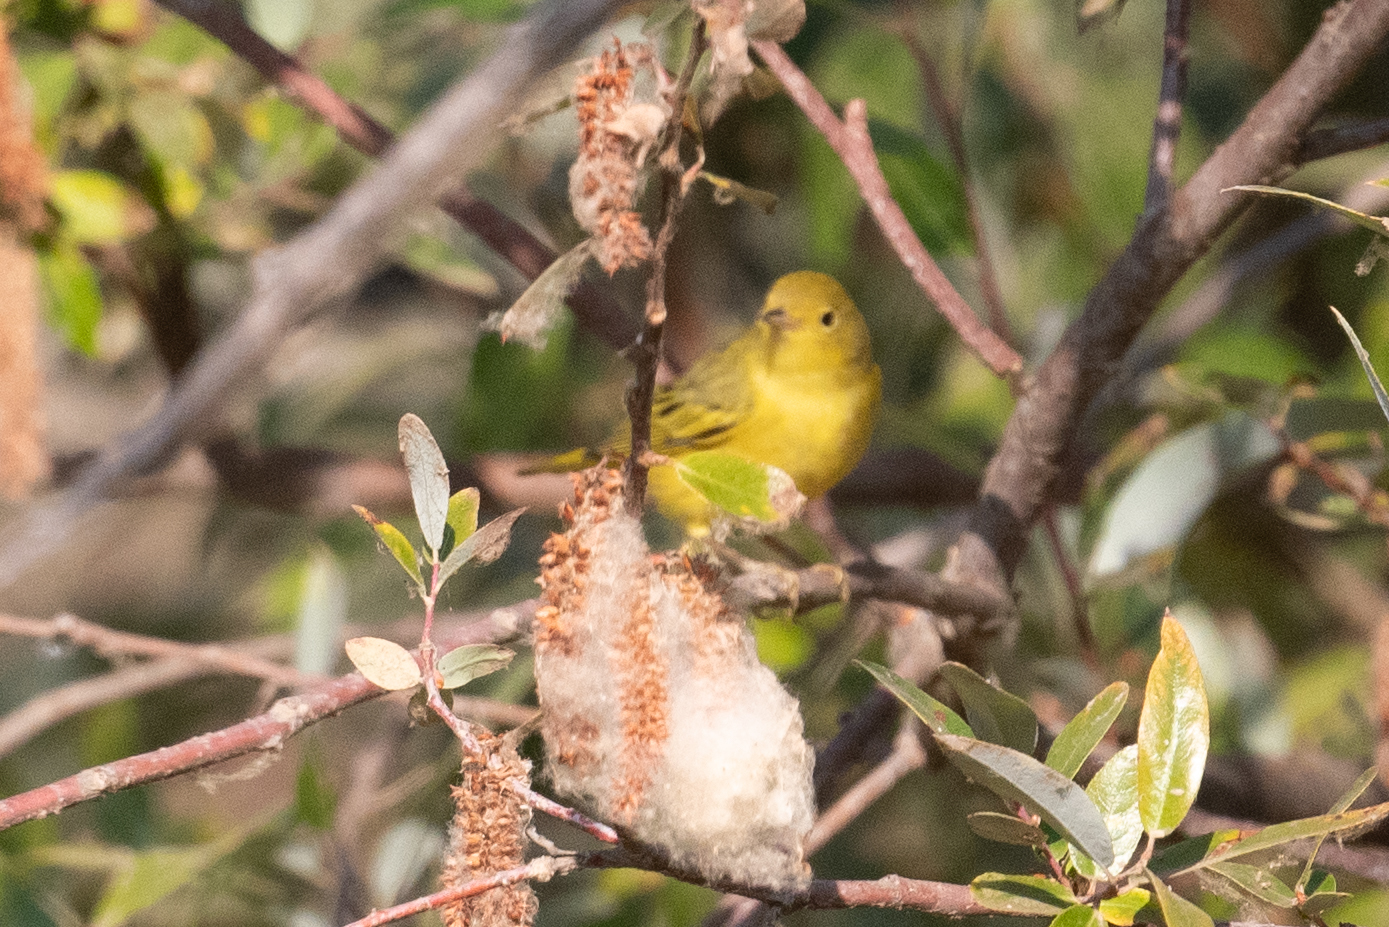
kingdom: Animalia
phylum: Chordata
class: Aves
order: Passeriformes
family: Parulidae
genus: Setophaga
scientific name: Setophaga petechia
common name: Yellow warbler
